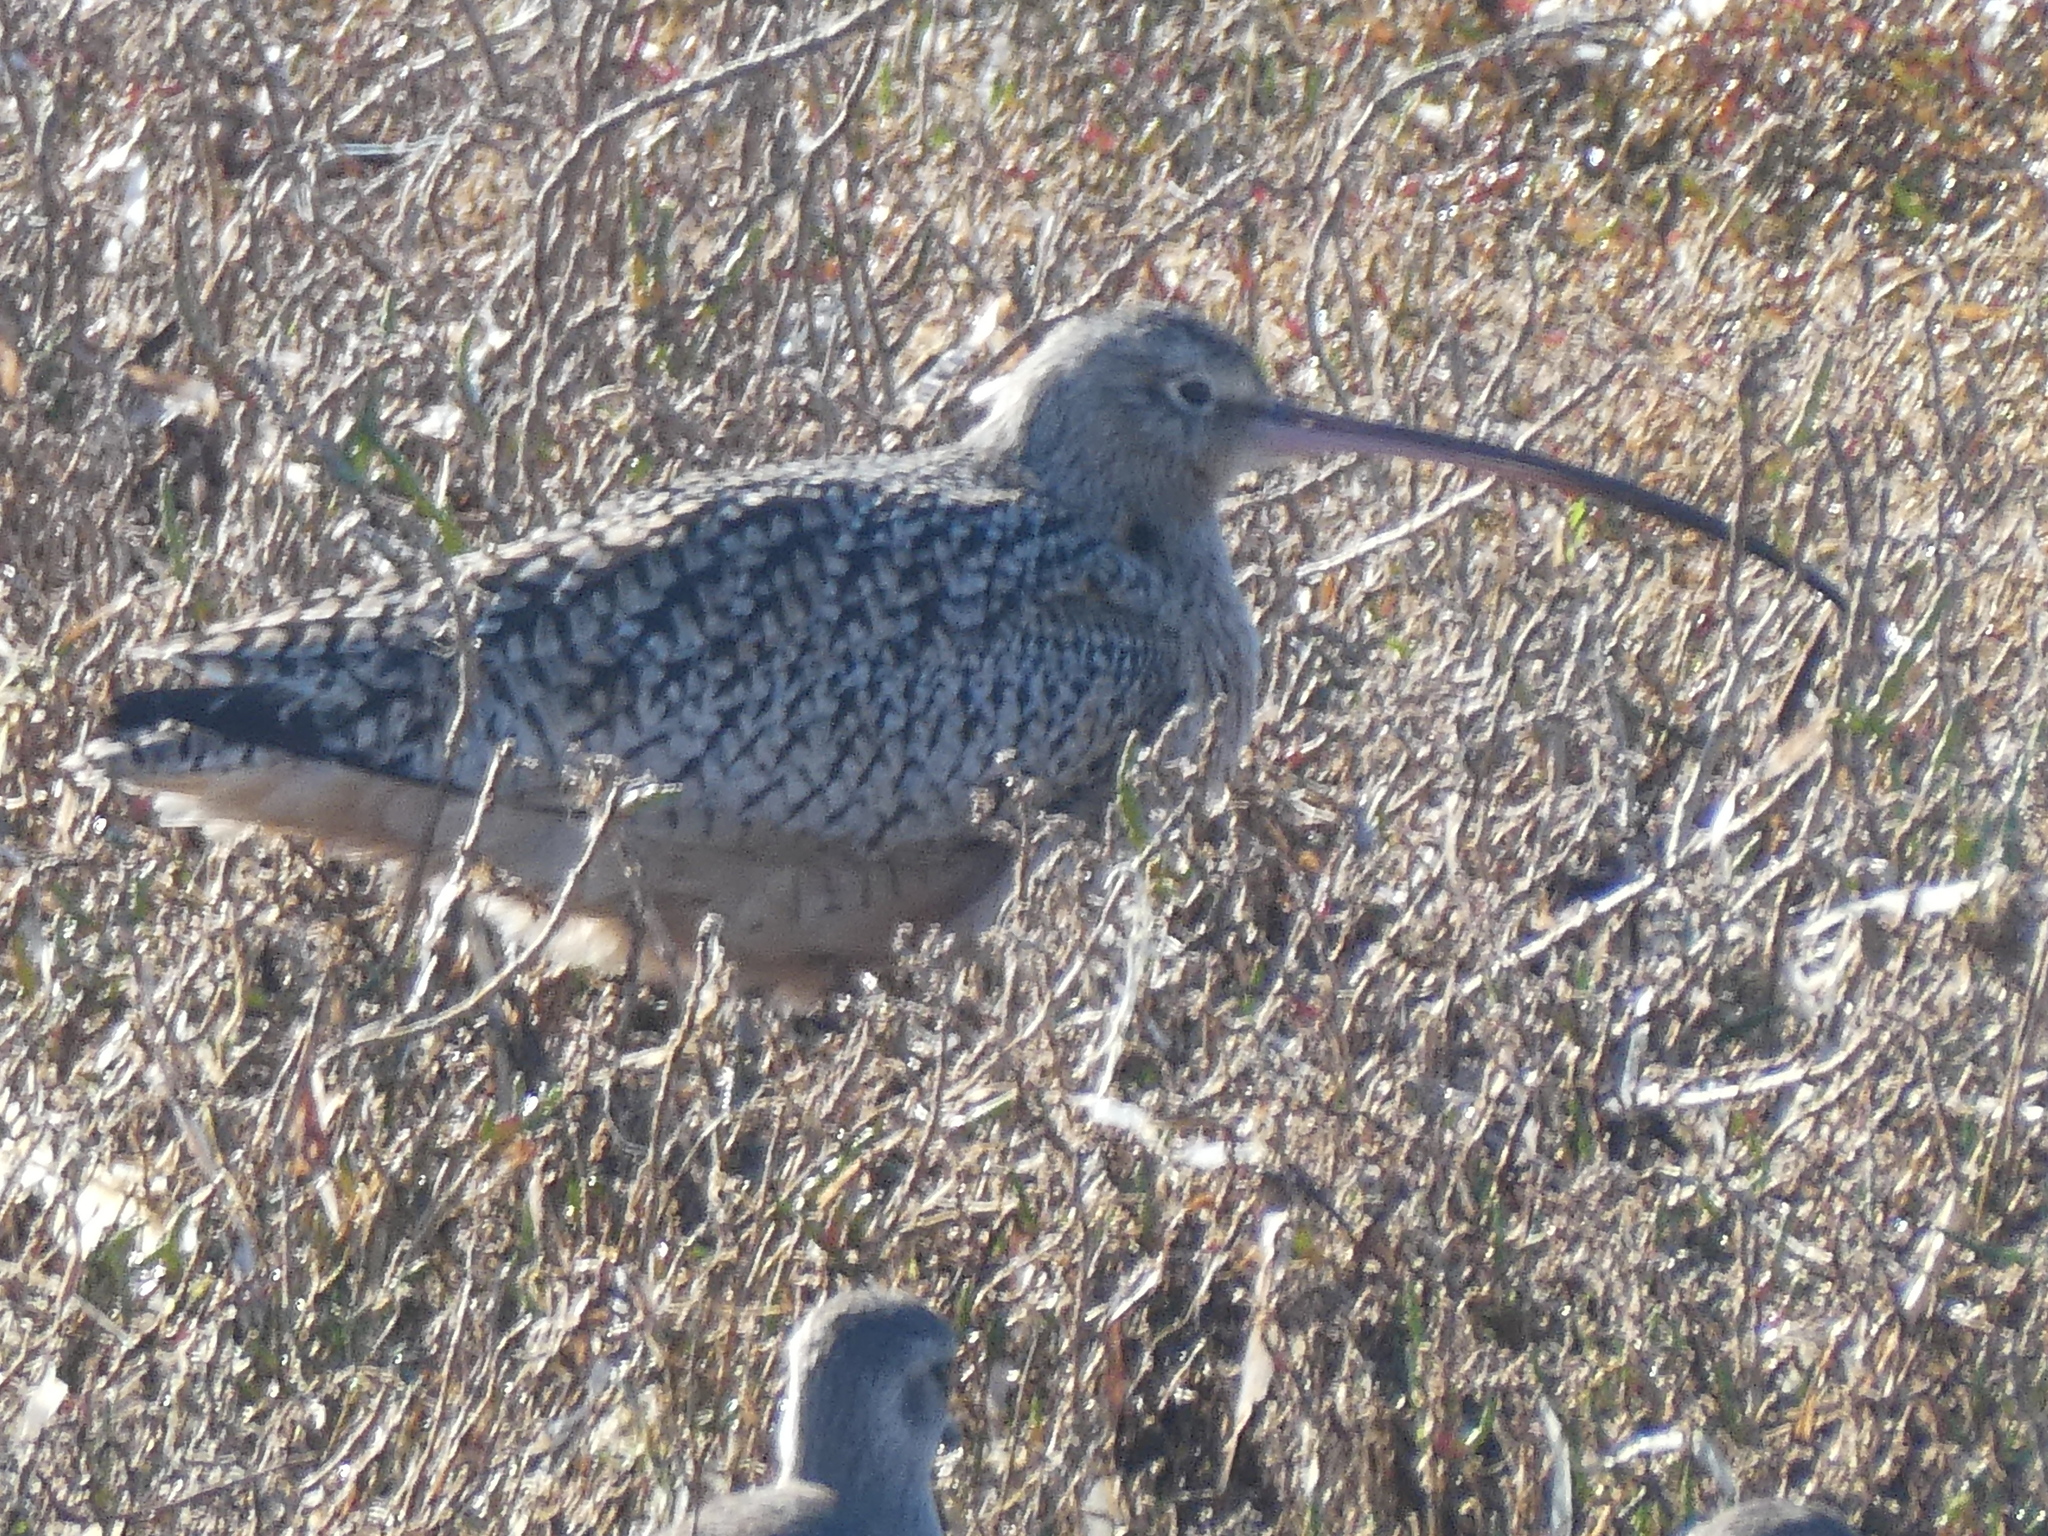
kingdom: Animalia
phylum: Chordata
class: Aves
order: Charadriiformes
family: Scolopacidae
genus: Numenius
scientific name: Numenius americanus
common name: Long-billed curlew
